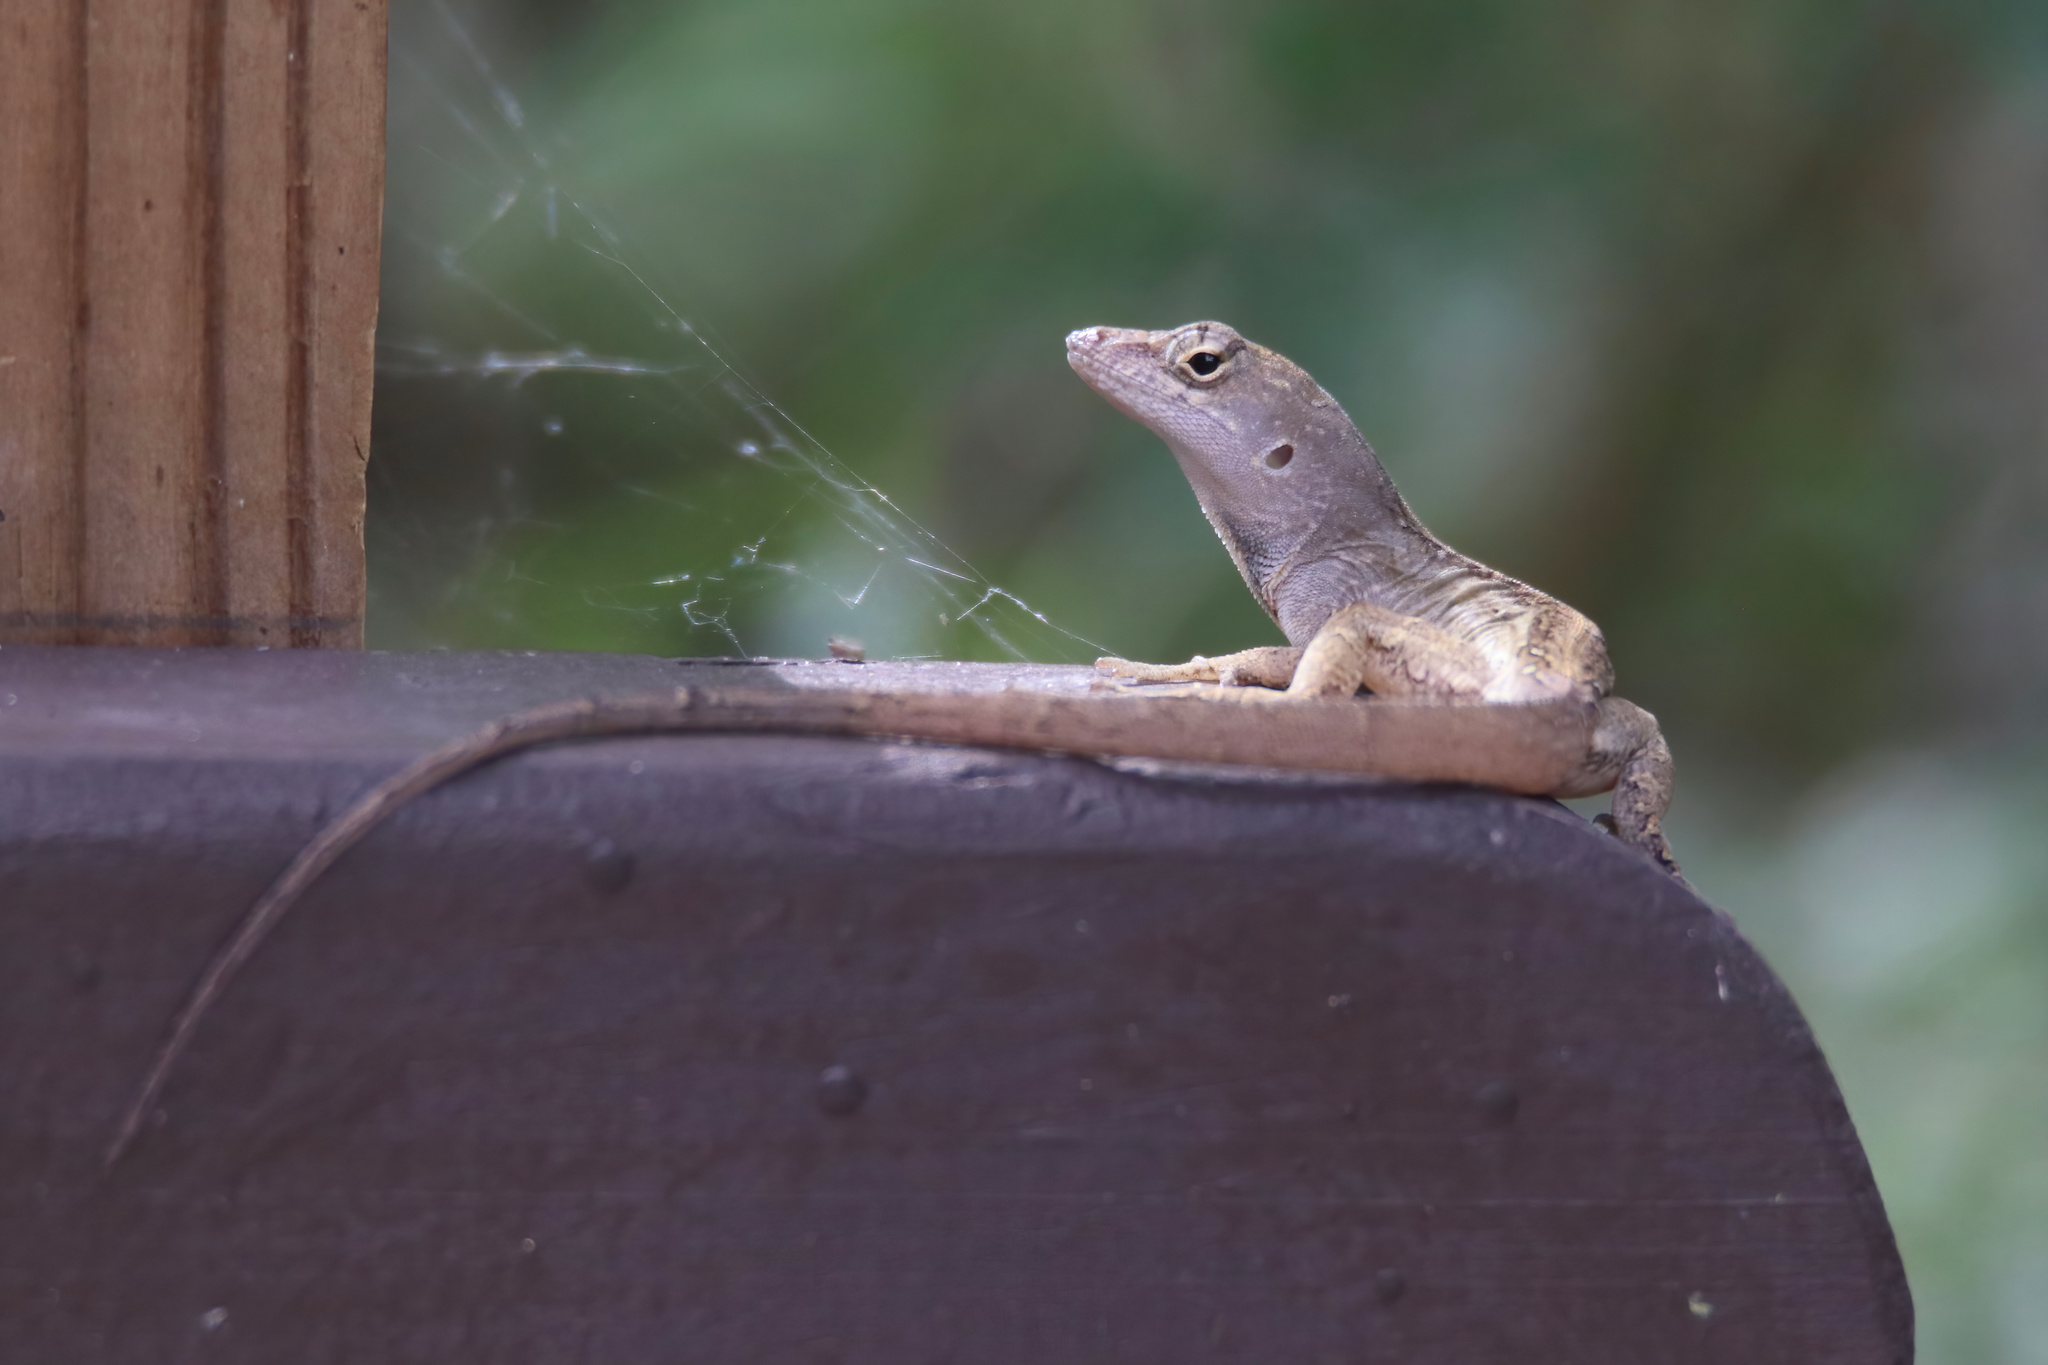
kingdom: Animalia
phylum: Chordata
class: Squamata
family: Dactyloidae
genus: Anolis
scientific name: Anolis sagrei
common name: Brown anole
